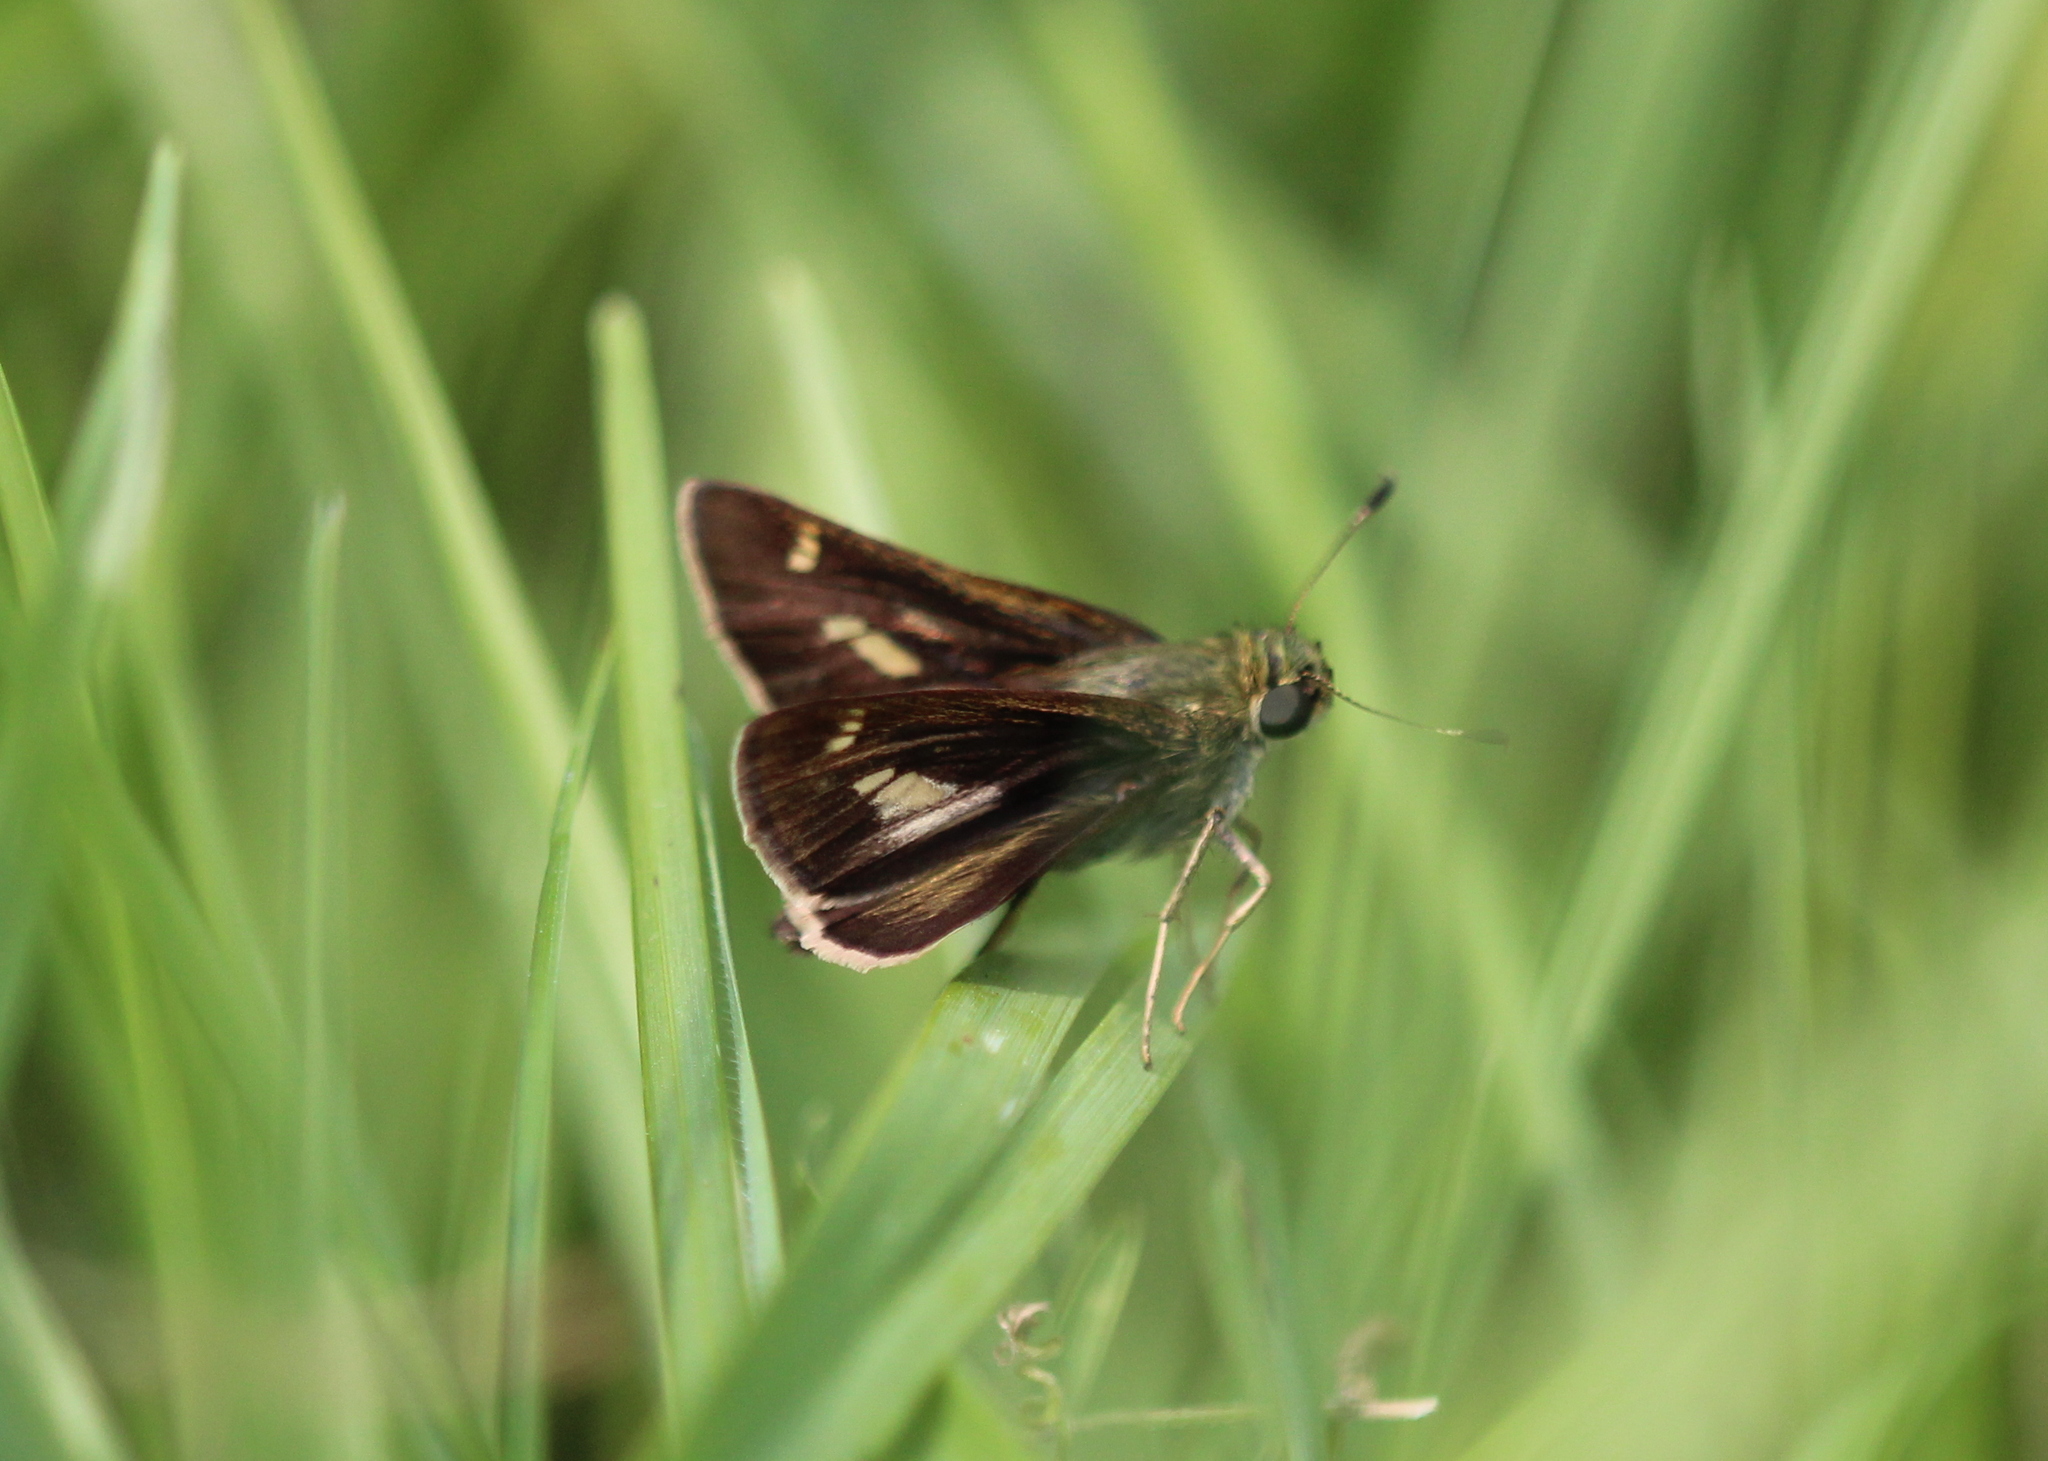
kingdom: Animalia
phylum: Arthropoda
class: Insecta
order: Lepidoptera
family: Hesperiidae
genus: Vernia
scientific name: Vernia verna
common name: Little glassywing
